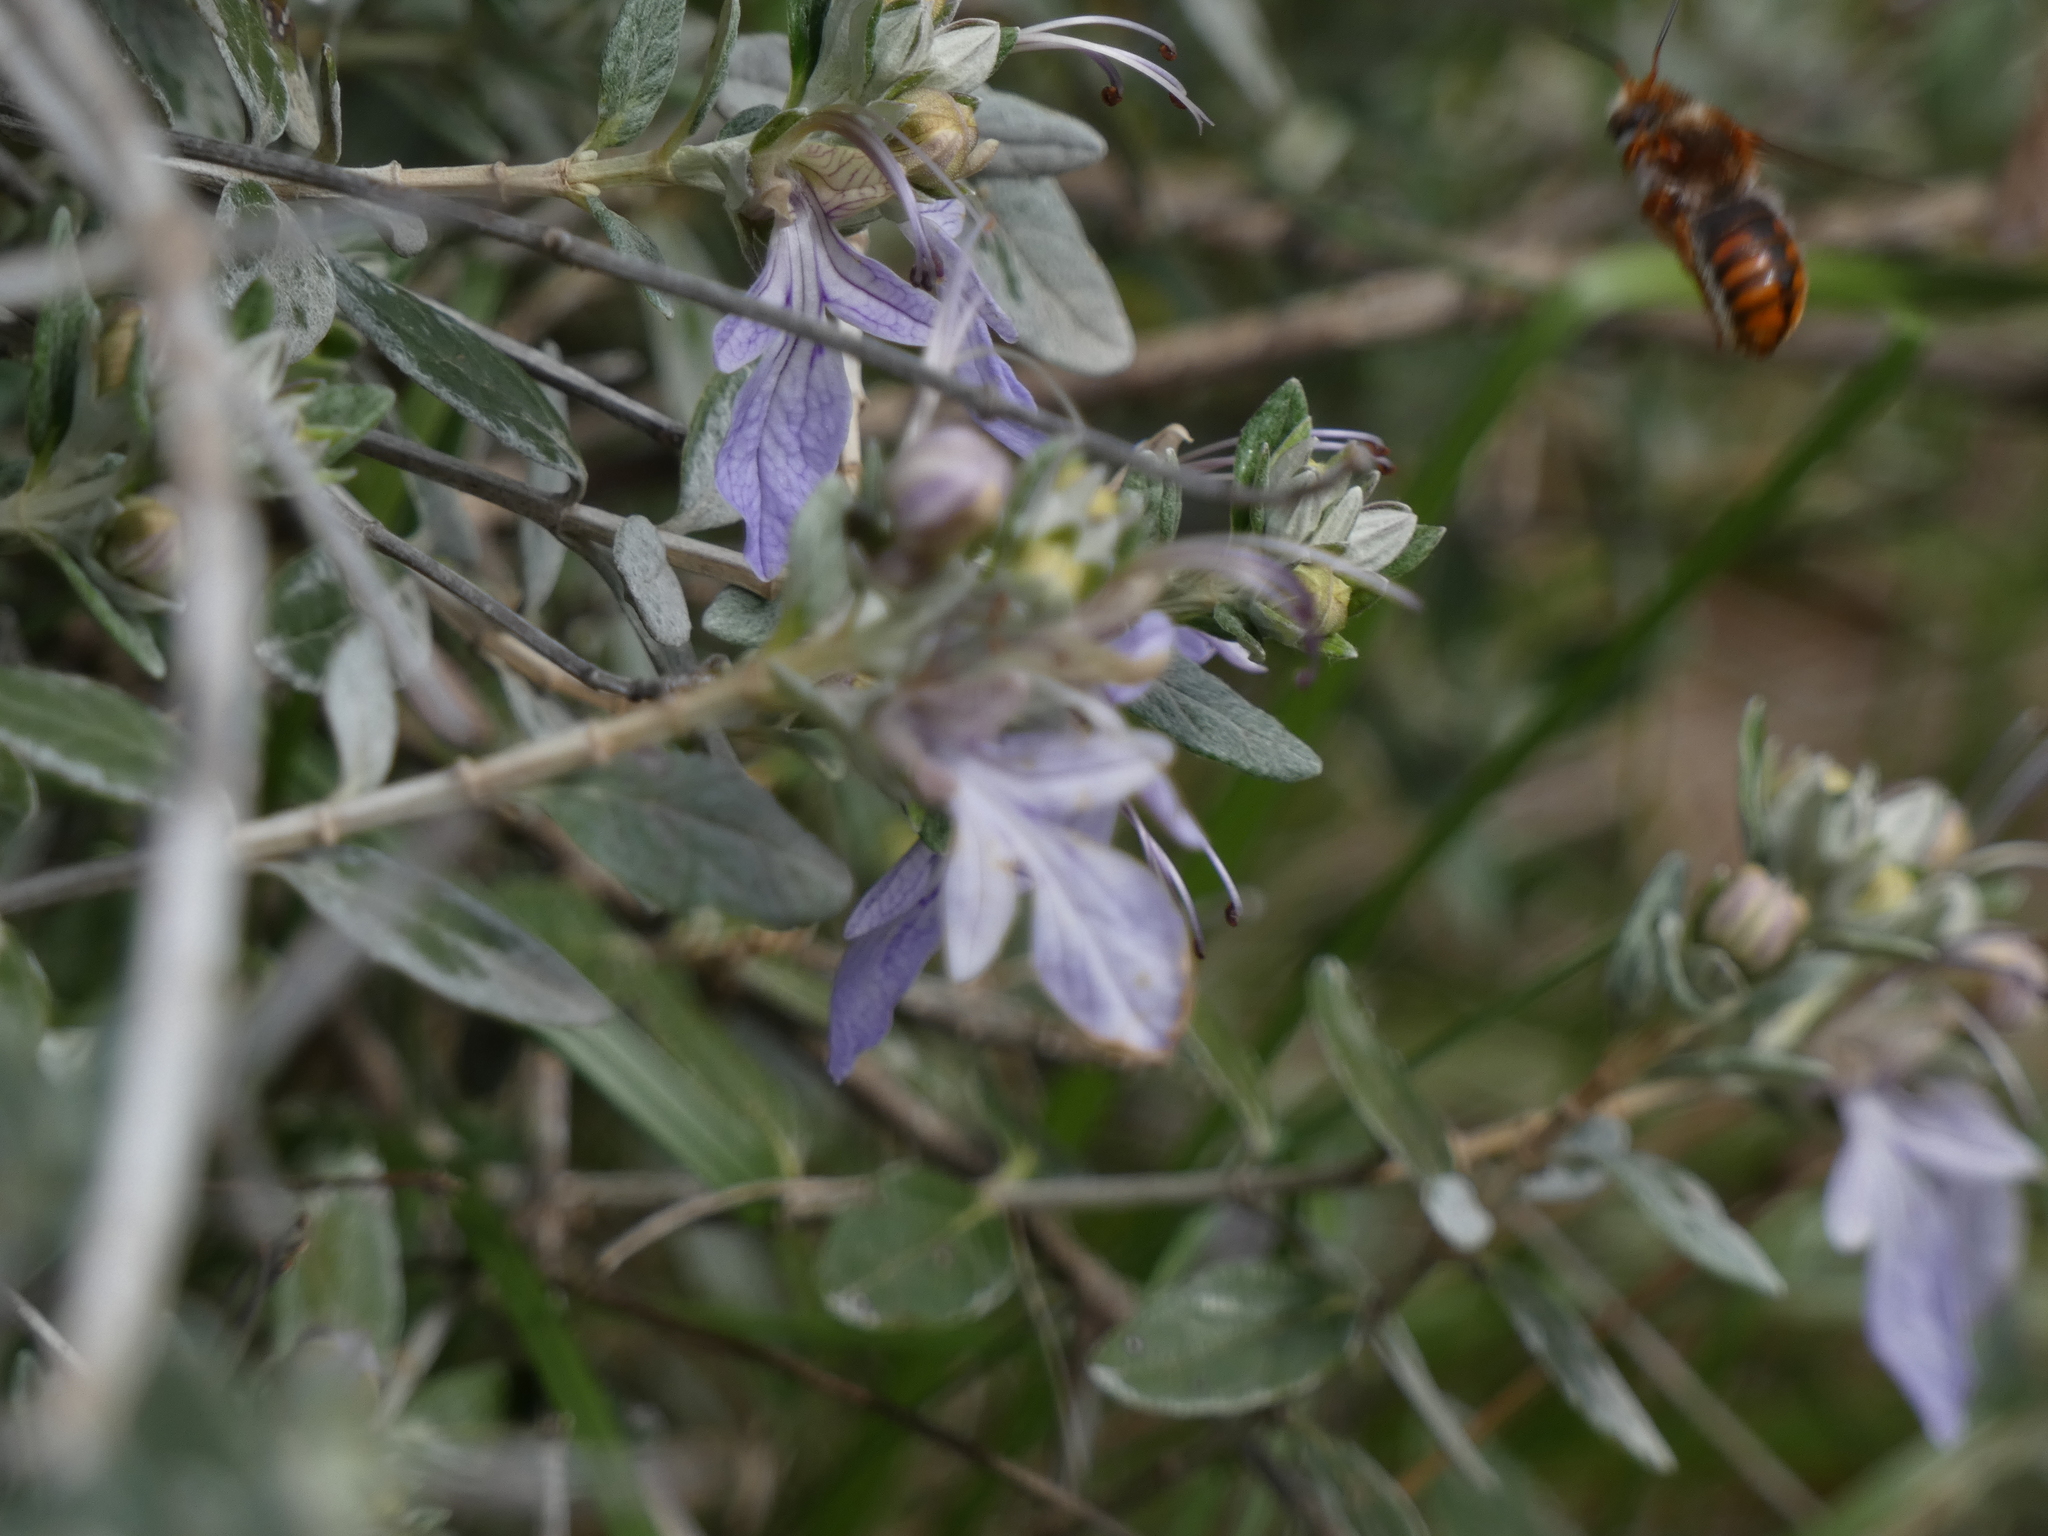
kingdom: Animalia
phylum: Arthropoda
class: Insecta
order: Hymenoptera
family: Megachilidae
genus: Rhodanthidium
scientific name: Rhodanthidium sticticum
